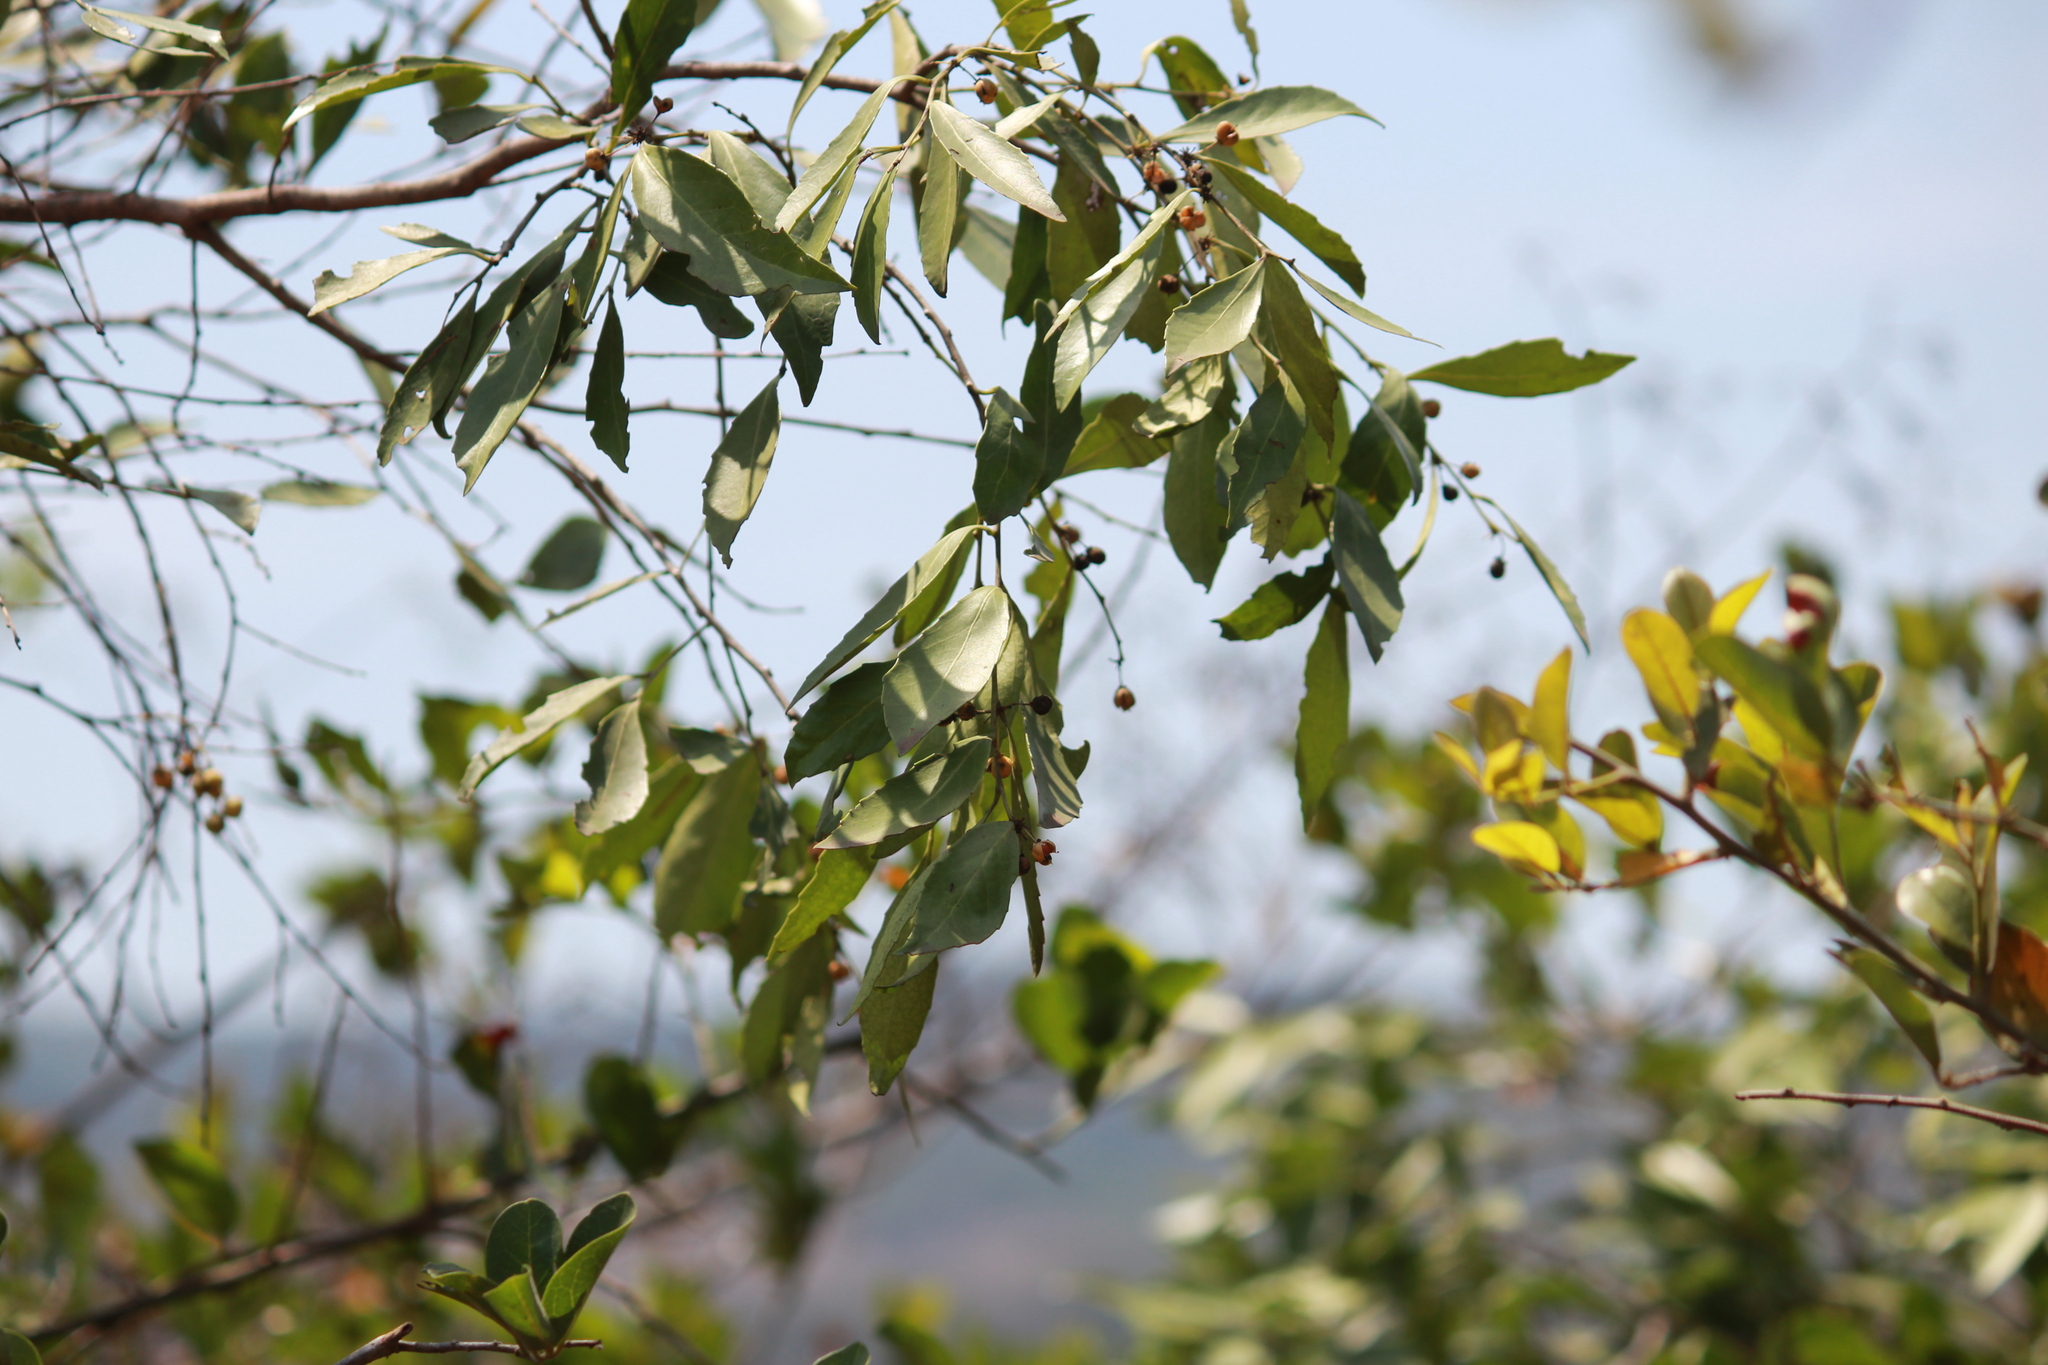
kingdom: Plantae
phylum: Tracheophyta
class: Magnoliopsida
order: Celastrales
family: Celastraceae
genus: Gymnosporia
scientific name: Gymnosporia undata
